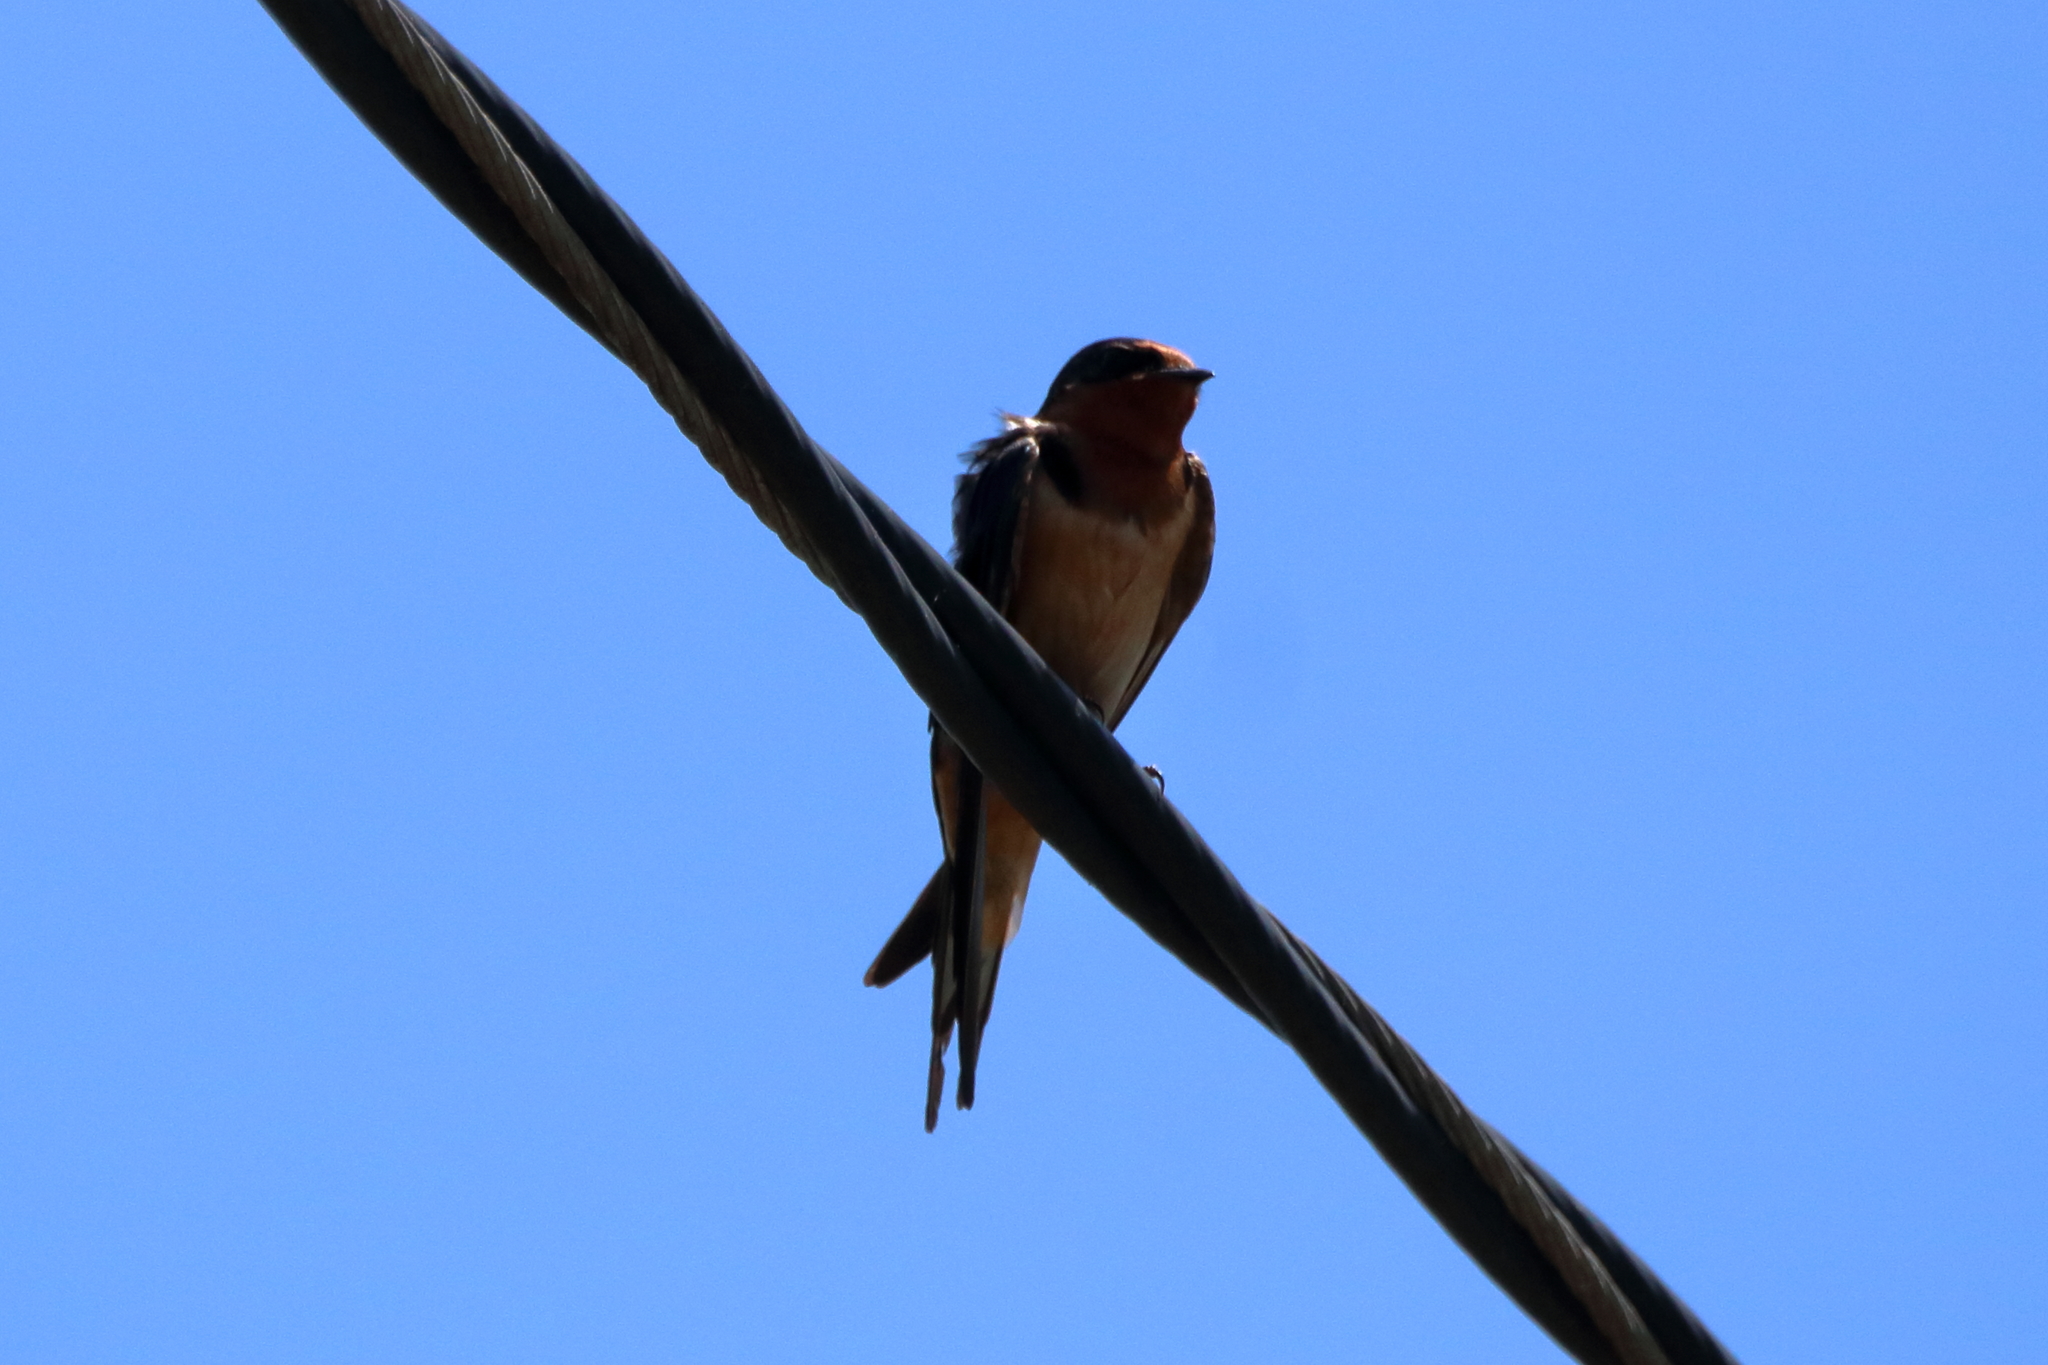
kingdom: Animalia
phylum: Chordata
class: Aves
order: Passeriformes
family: Hirundinidae
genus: Hirundo
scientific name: Hirundo rustica
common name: Barn swallow
